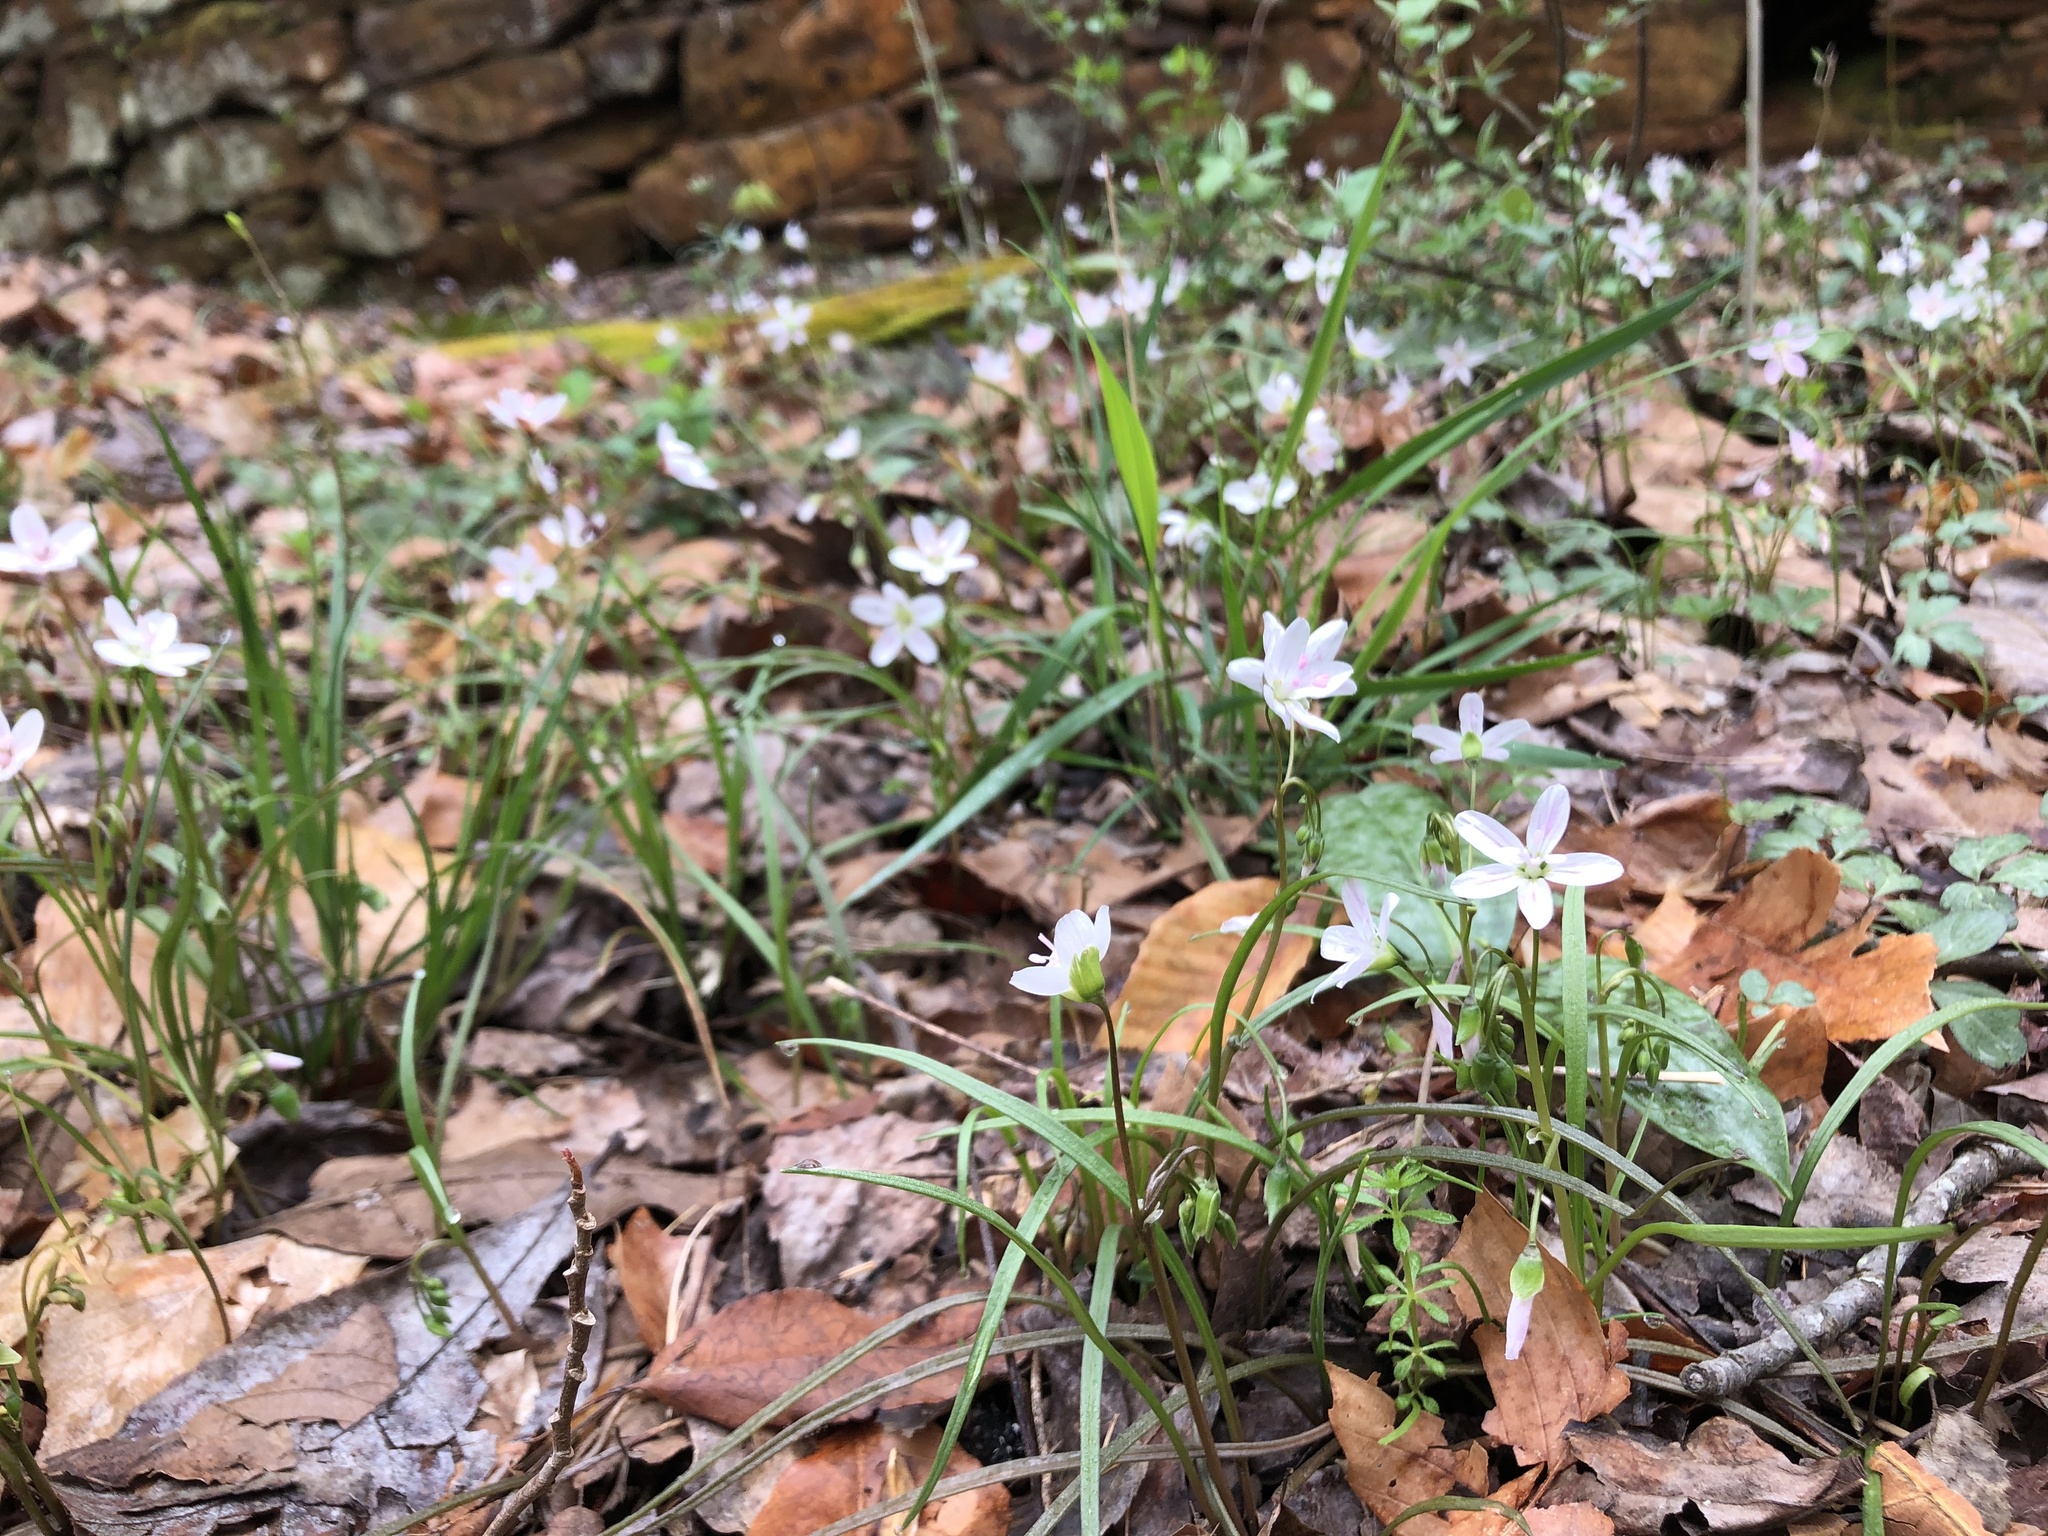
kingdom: Plantae
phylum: Tracheophyta
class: Magnoliopsida
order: Caryophyllales
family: Montiaceae
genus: Claytonia
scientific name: Claytonia virginica
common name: Virginia springbeauty
